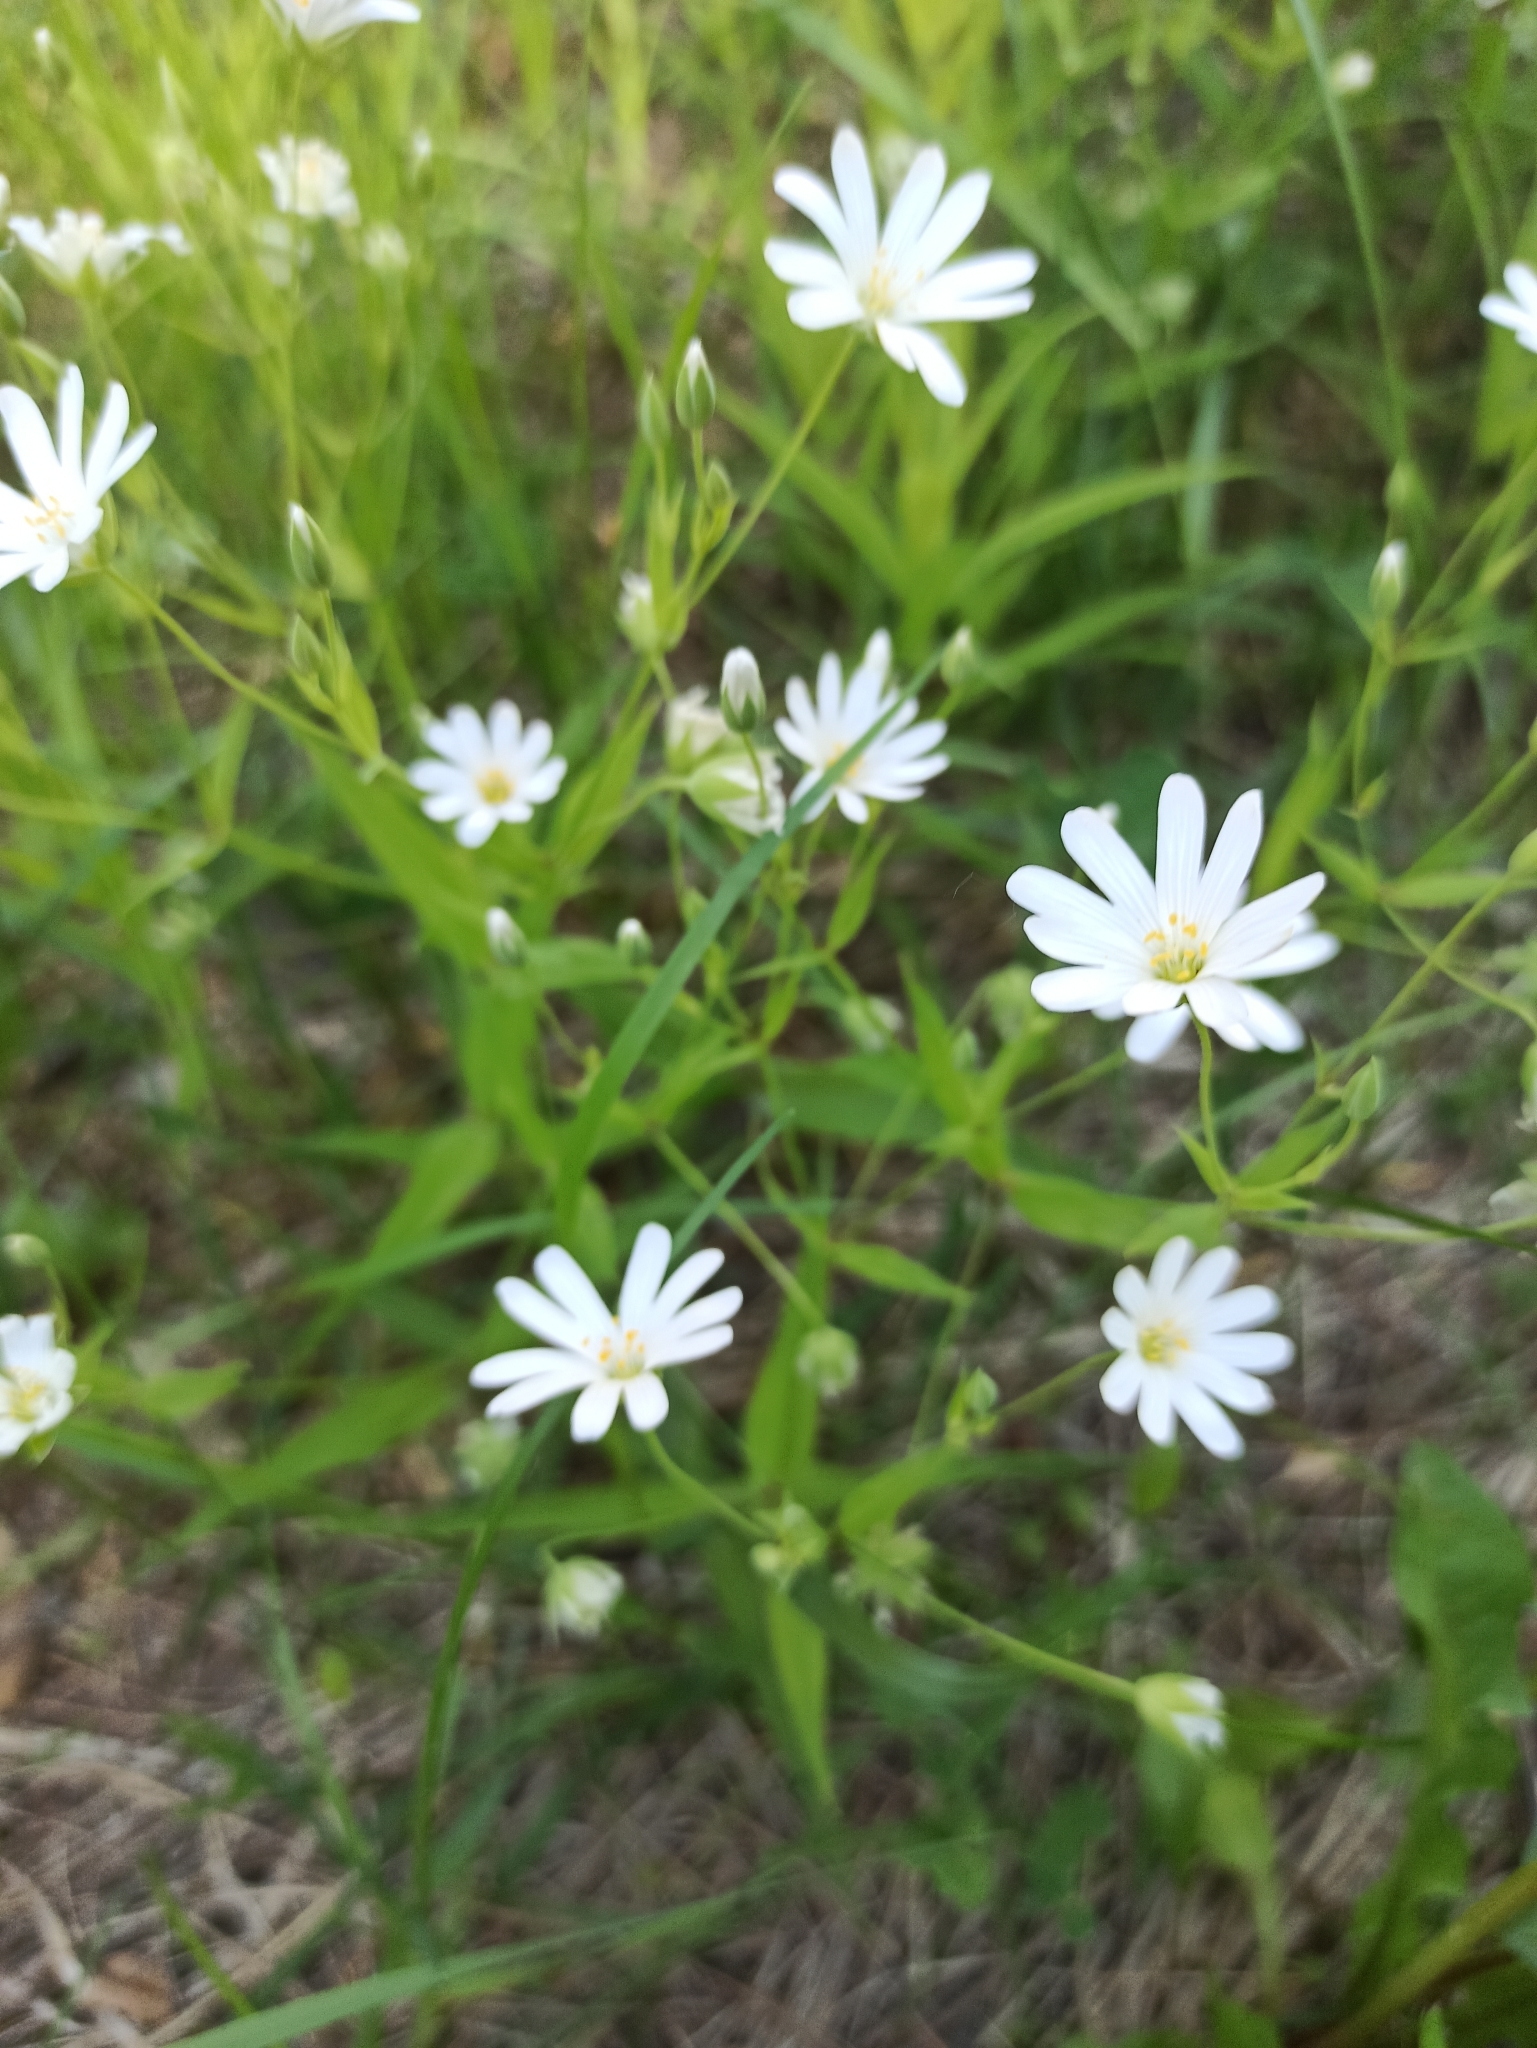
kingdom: Plantae
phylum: Tracheophyta
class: Magnoliopsida
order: Caryophyllales
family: Caryophyllaceae
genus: Rabelera
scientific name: Rabelera holostea
